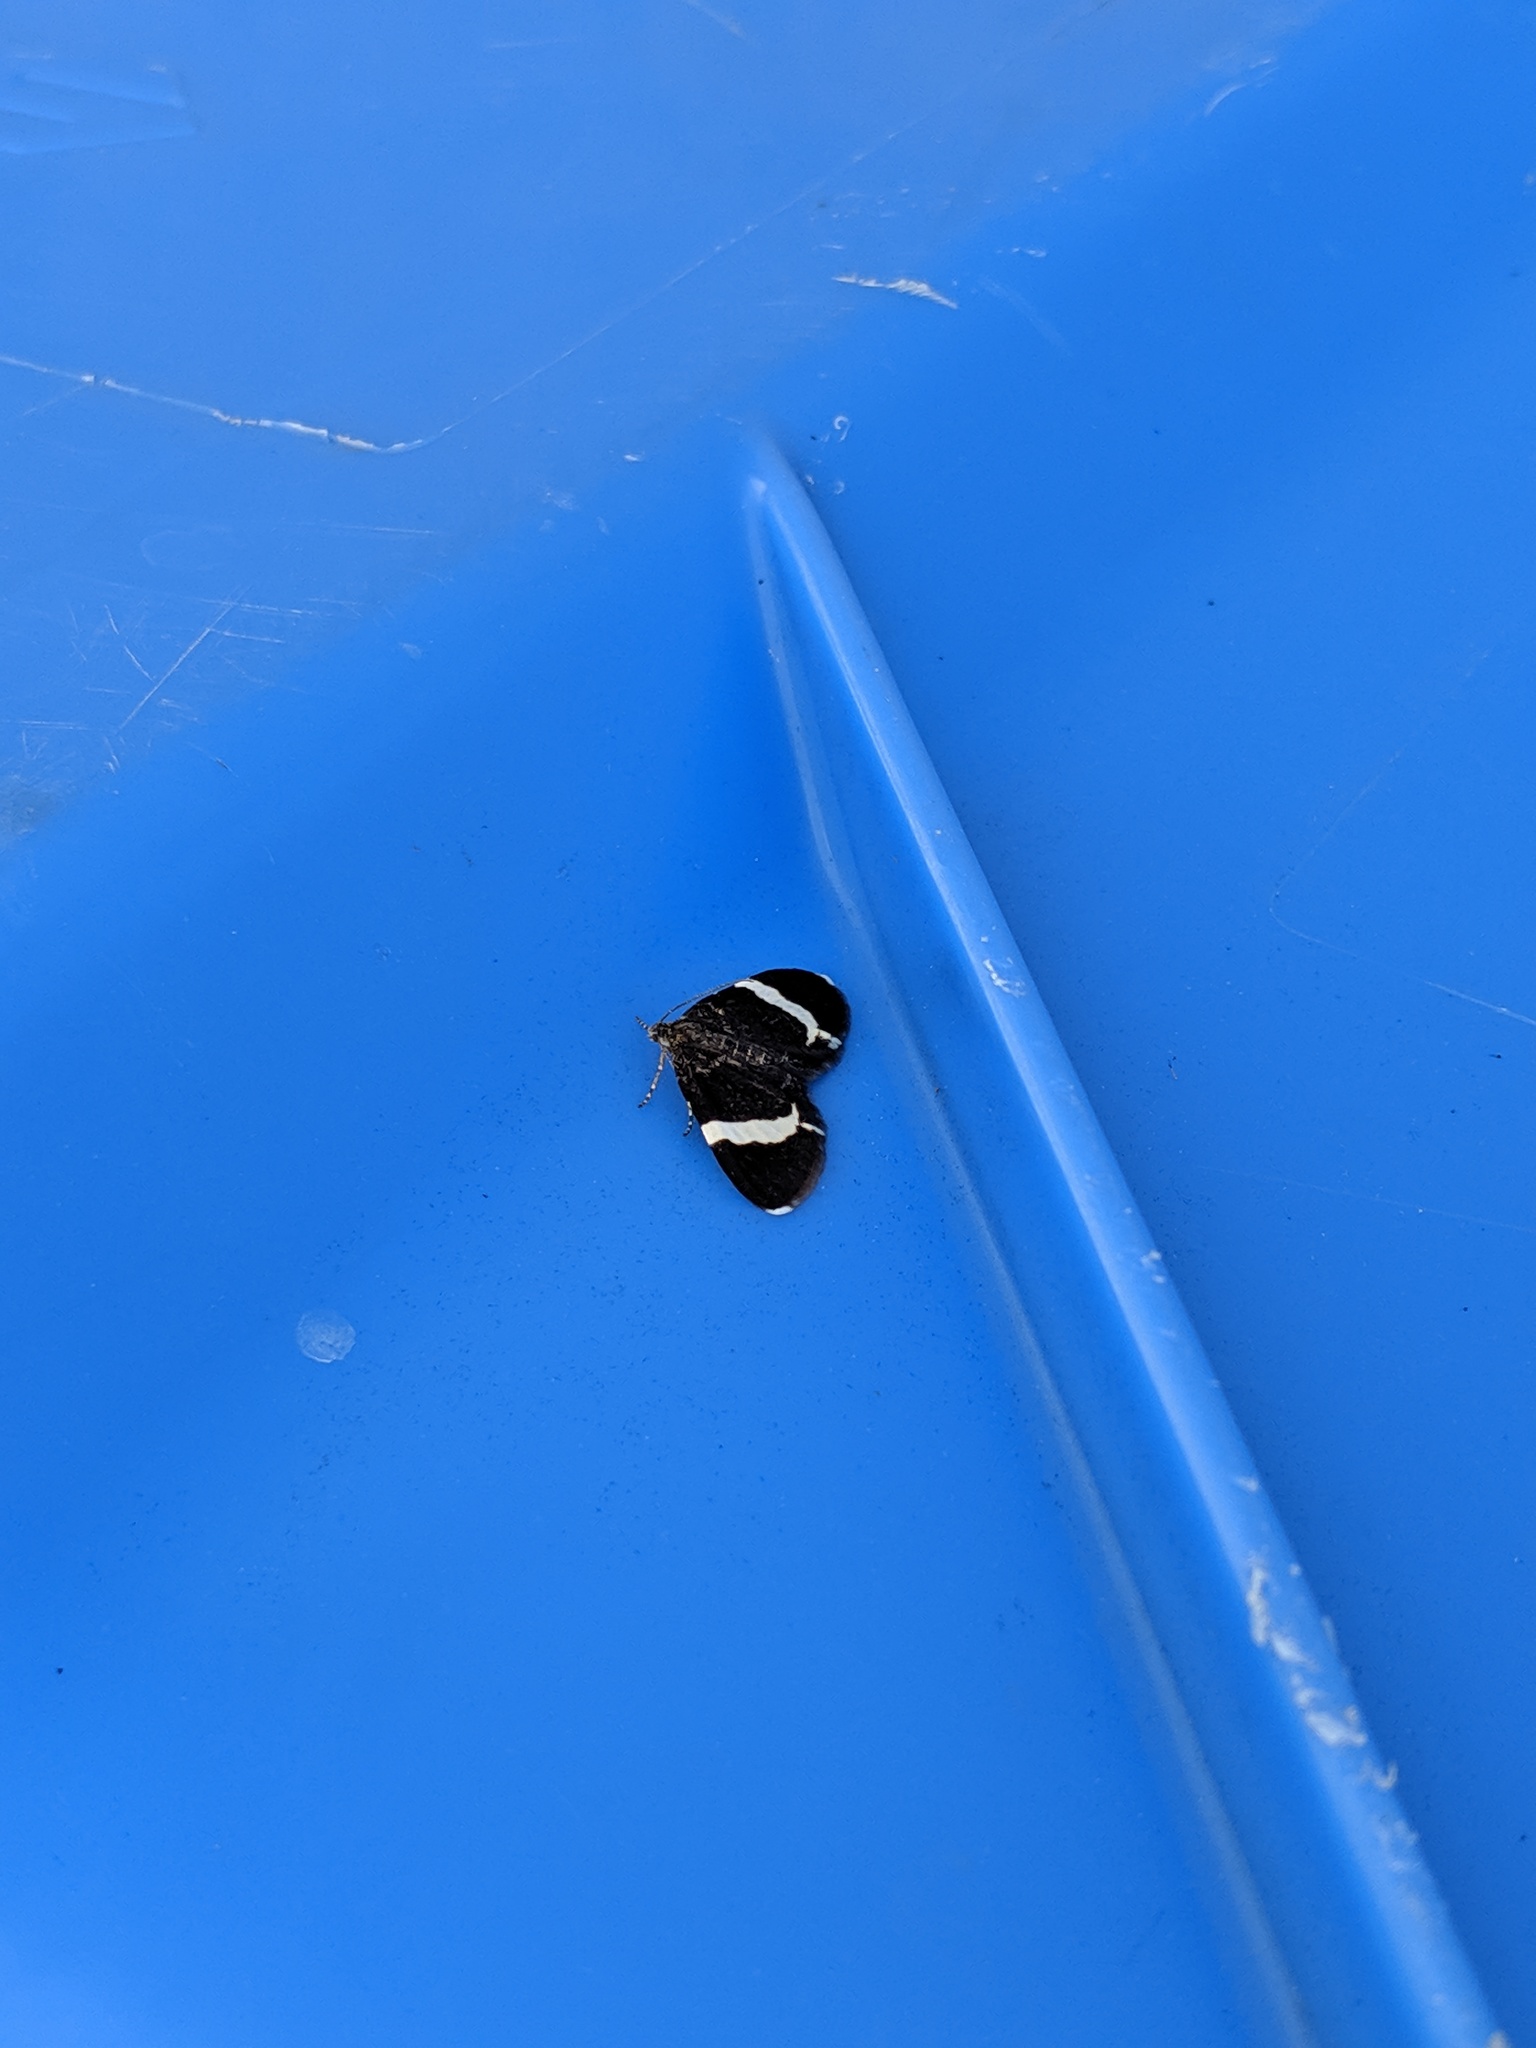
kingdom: Animalia
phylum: Arthropoda
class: Insecta
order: Lepidoptera
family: Geometridae
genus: Trichodezia
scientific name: Trichodezia albovittata
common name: White striped black
